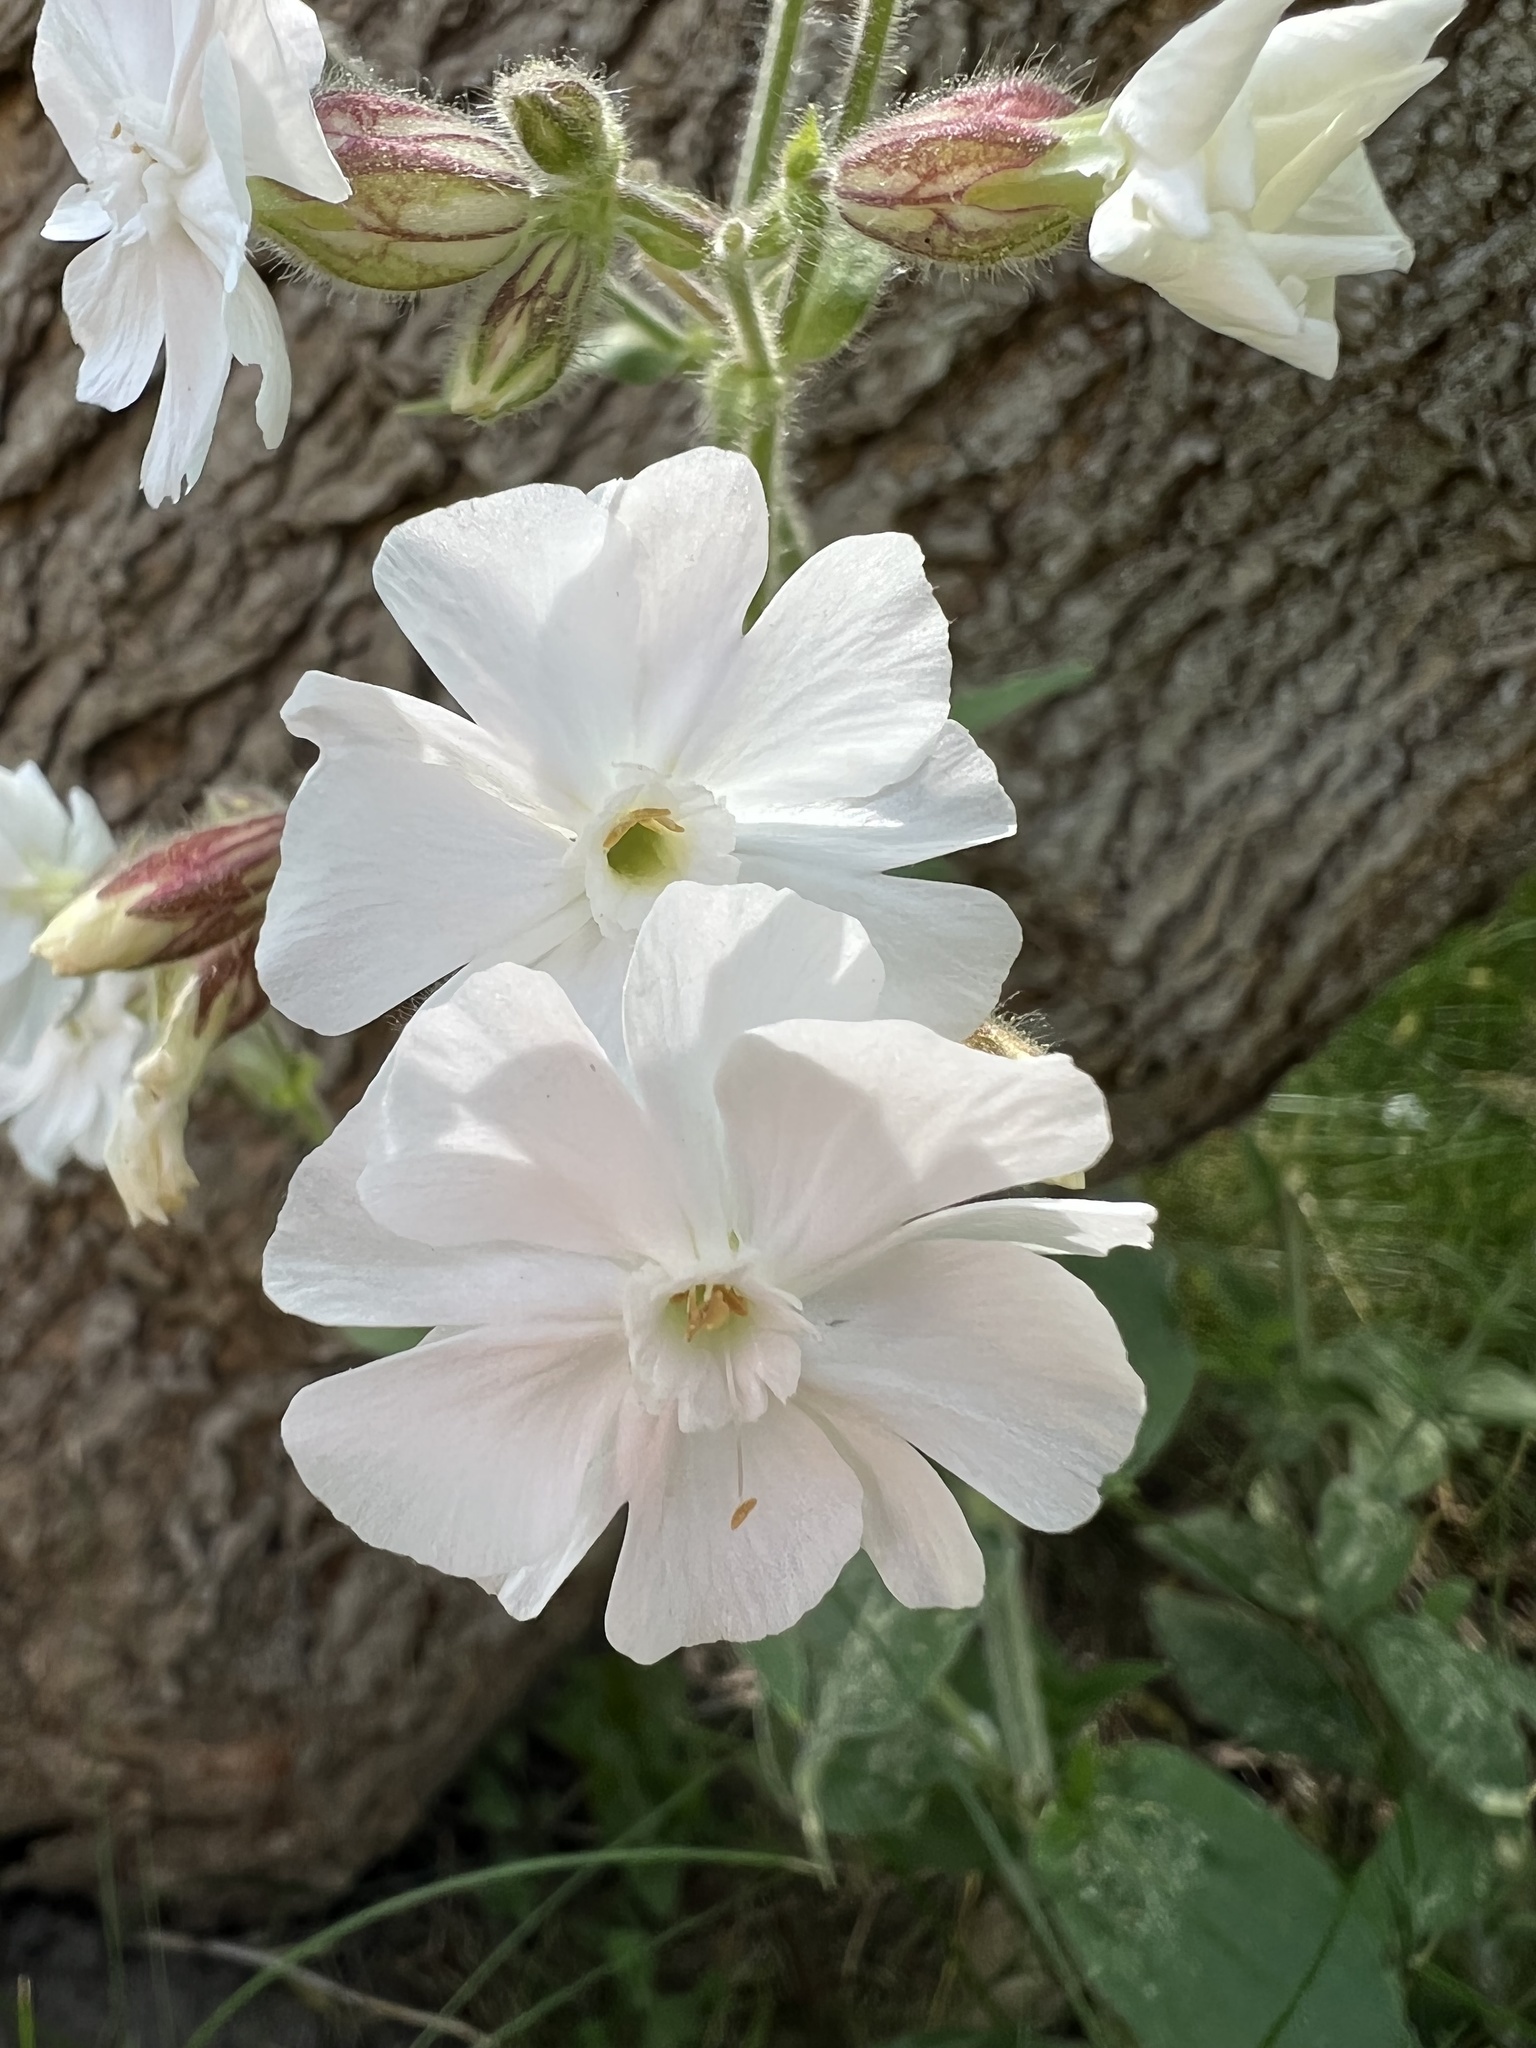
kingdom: Plantae
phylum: Tracheophyta
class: Magnoliopsida
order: Caryophyllales
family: Caryophyllaceae
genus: Silene
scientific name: Silene latifolia
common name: White campion
